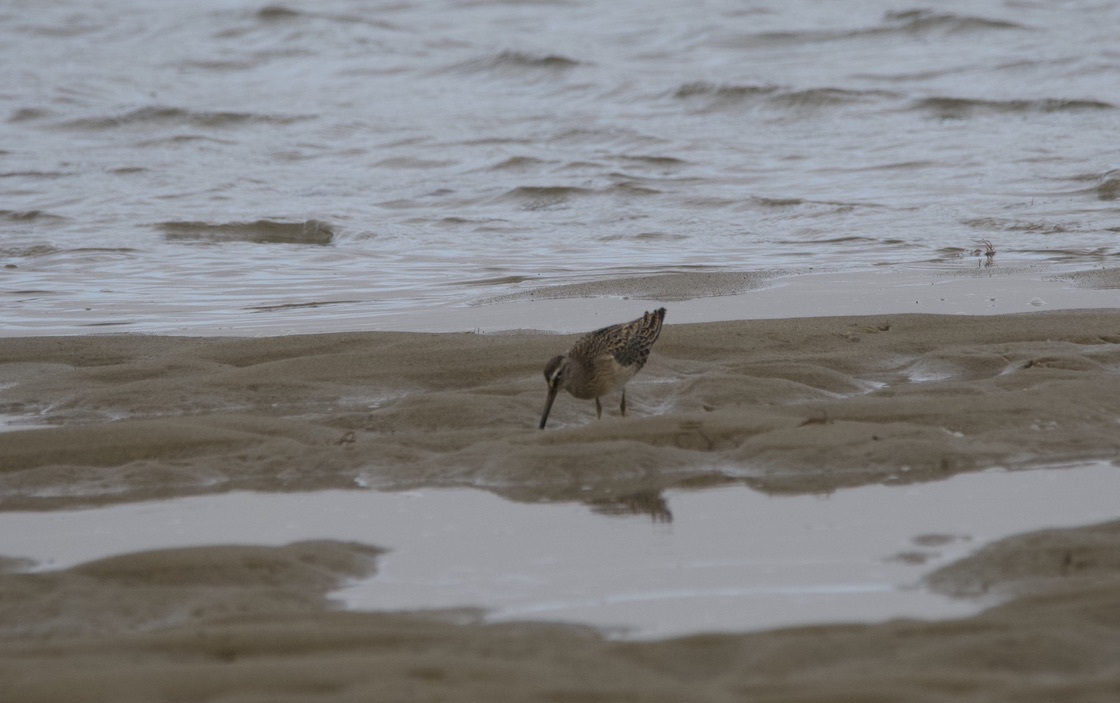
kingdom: Animalia
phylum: Chordata
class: Aves
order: Charadriiformes
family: Scolopacidae
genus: Limnodromus
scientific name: Limnodromus griseus
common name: Short-billed dowitcher
